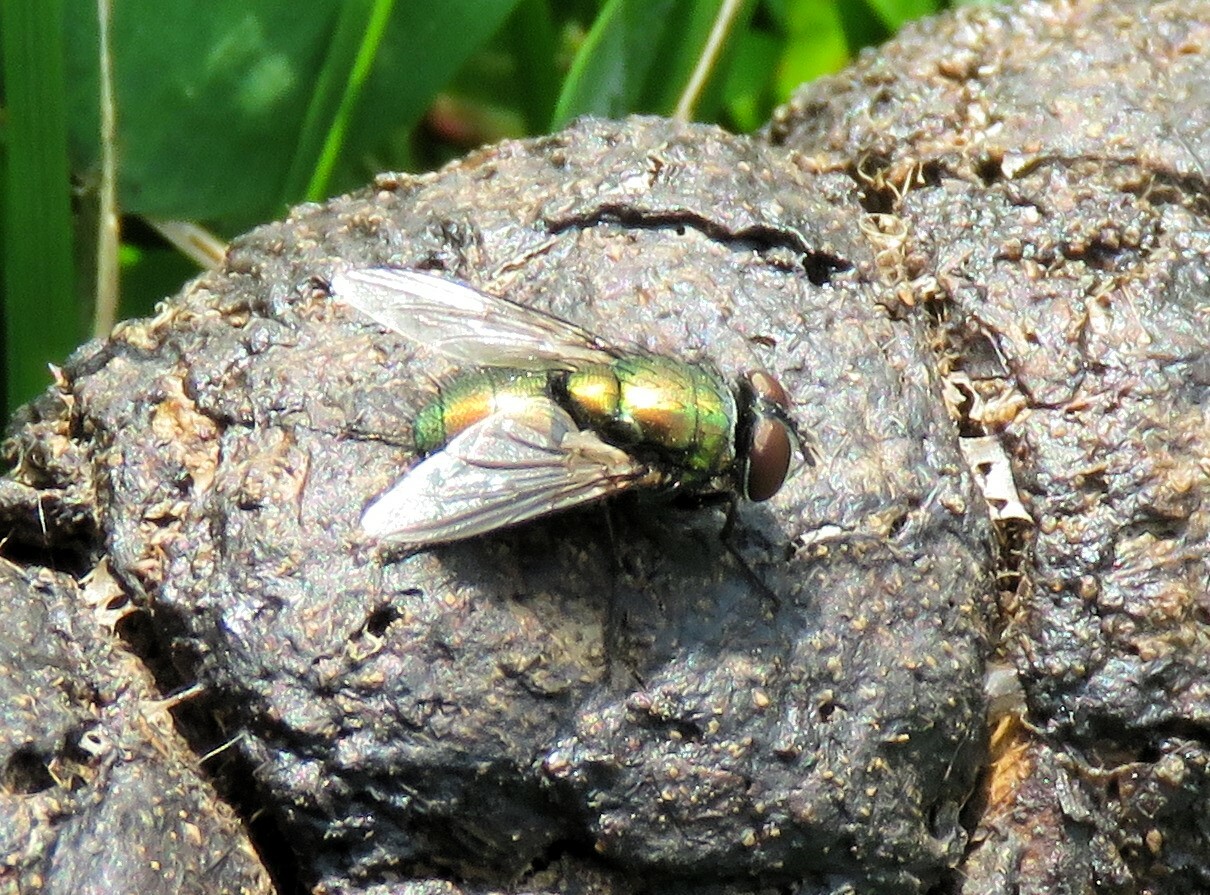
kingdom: Animalia
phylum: Arthropoda
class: Insecta
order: Diptera
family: Calliphoridae
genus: Lucilia
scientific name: Lucilia sericata
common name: Blow fly
